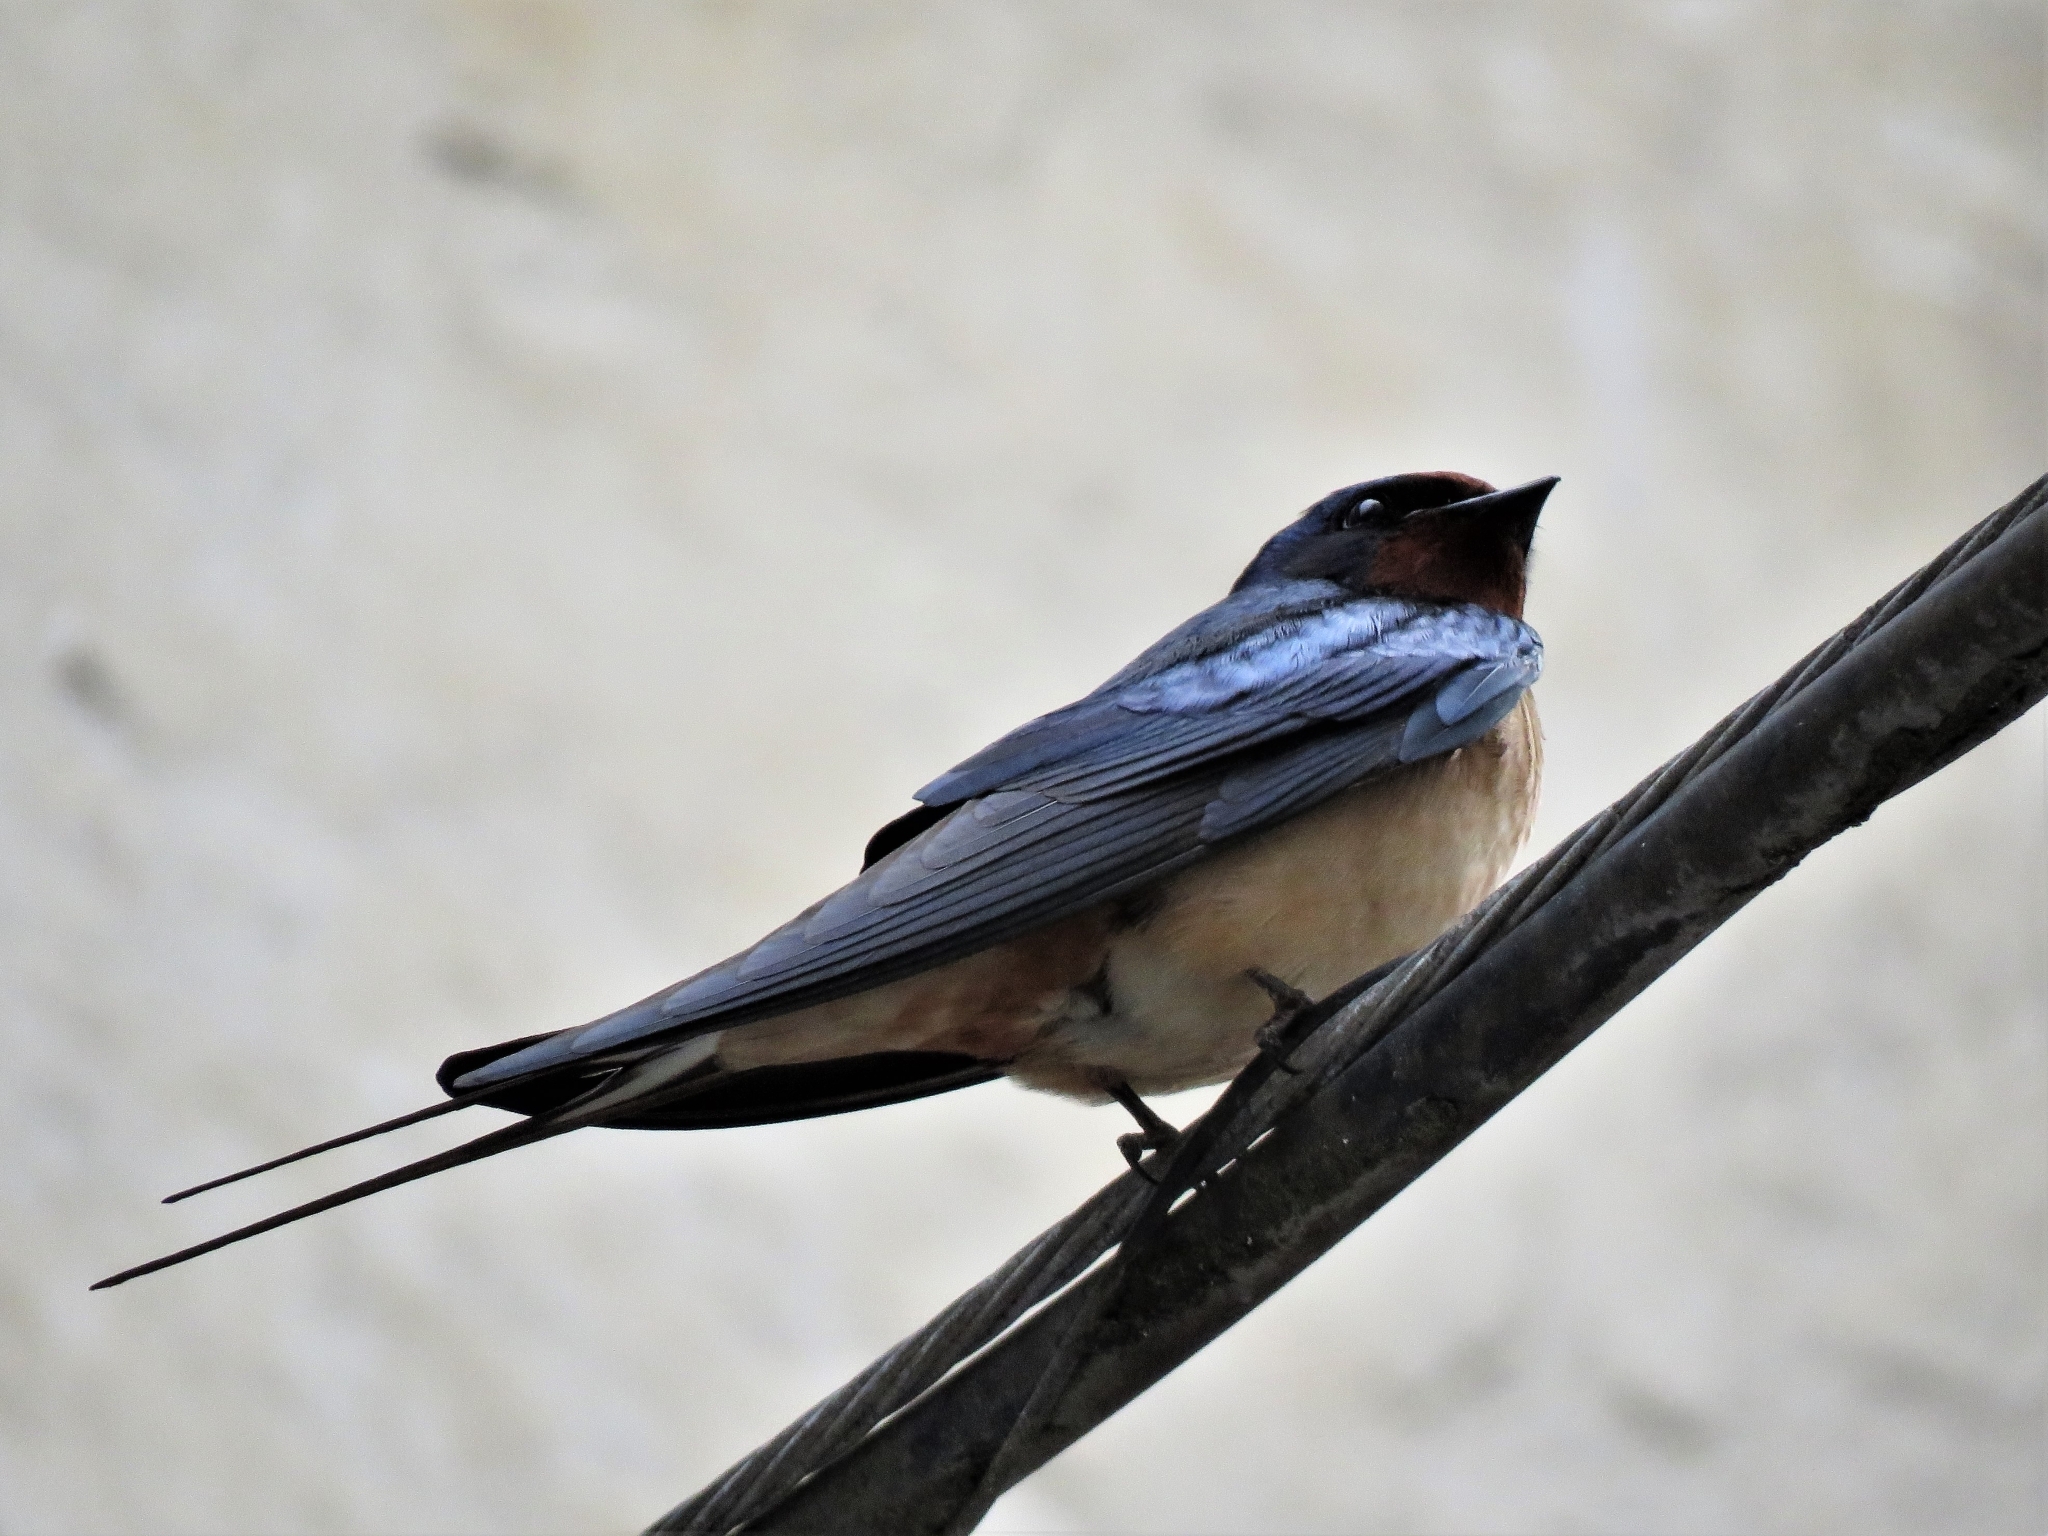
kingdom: Animalia
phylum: Chordata
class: Aves
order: Passeriformes
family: Hirundinidae
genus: Hirundo
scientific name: Hirundo rustica
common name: Barn swallow
